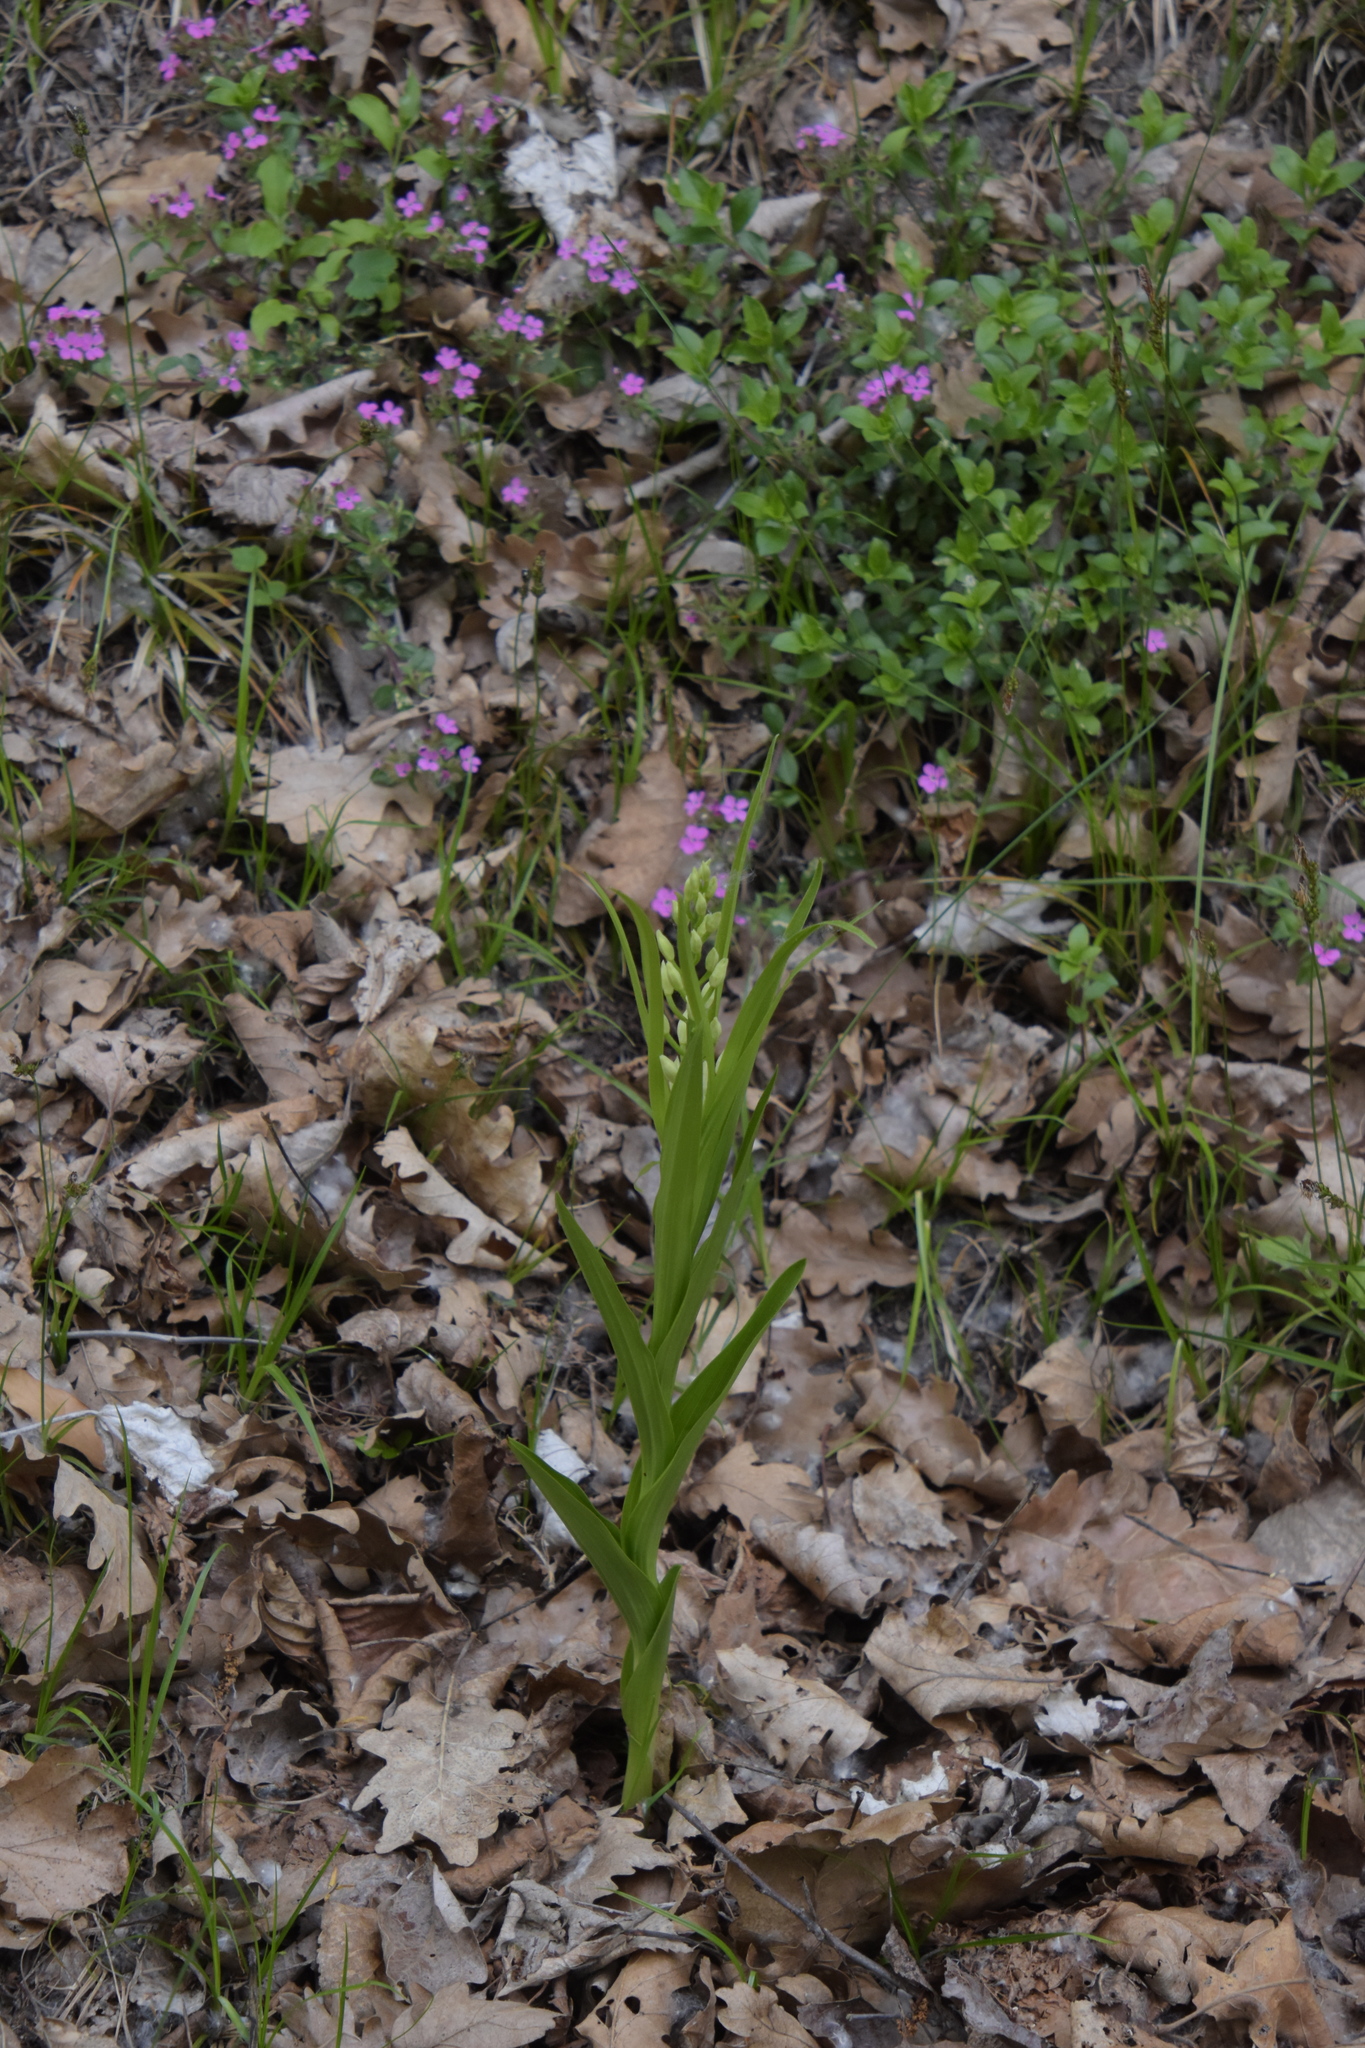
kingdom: Plantae
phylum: Tracheophyta
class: Liliopsida
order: Asparagales
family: Orchidaceae
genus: Cephalanthera
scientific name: Cephalanthera longifolia
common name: Narrow-leaved helleborine
